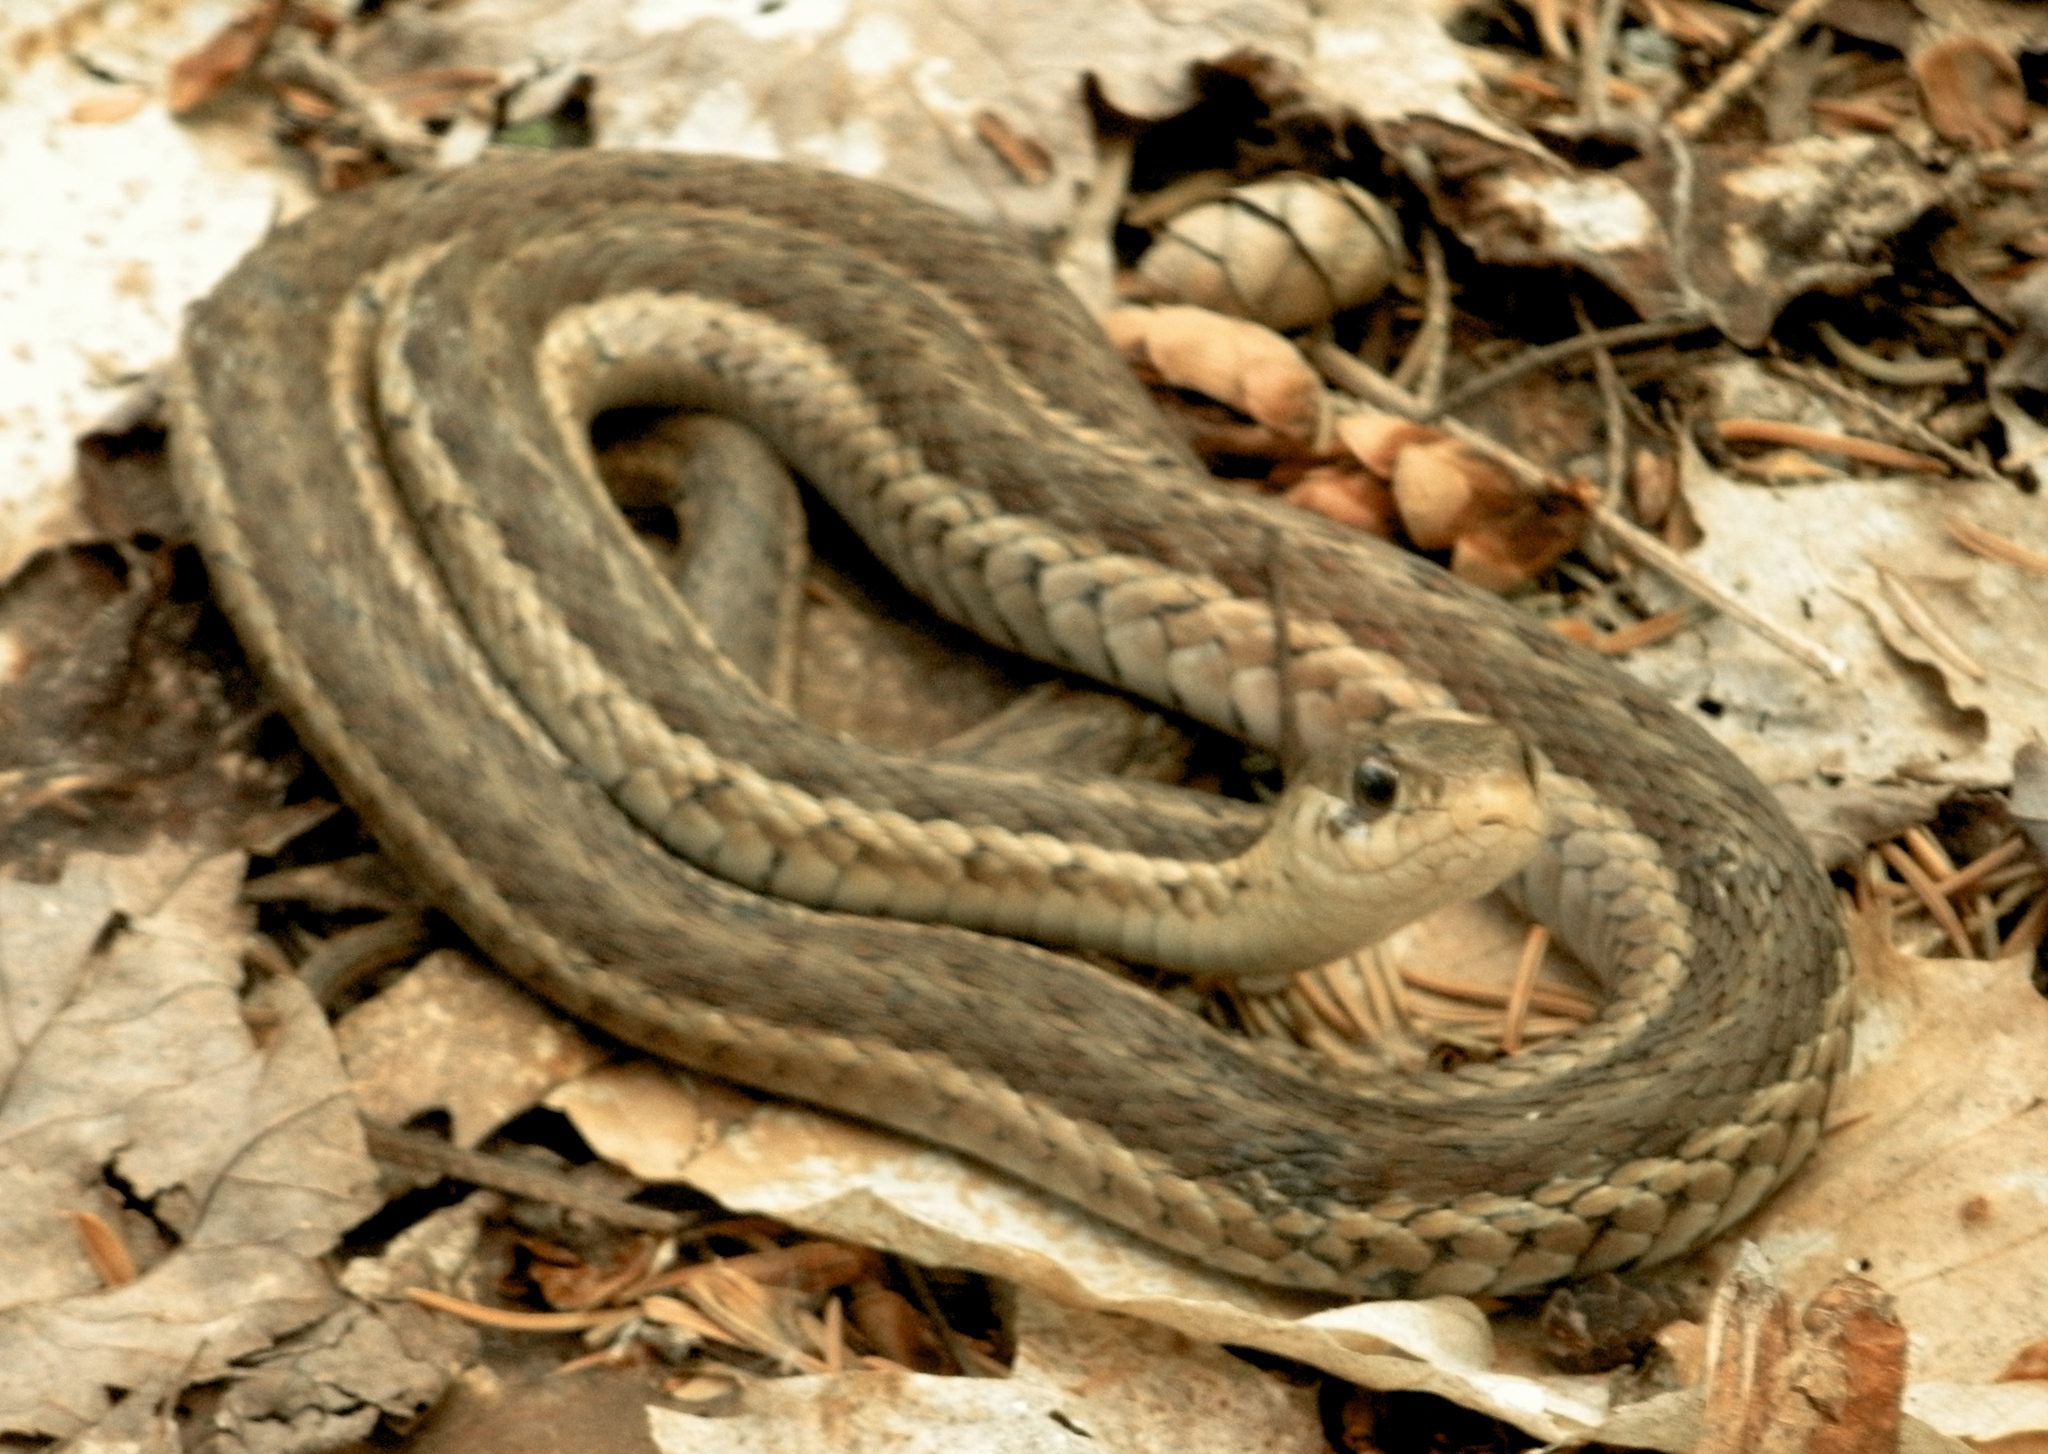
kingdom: Animalia
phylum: Chordata
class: Squamata
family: Colubridae
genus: Thamnophis
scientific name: Thamnophis sirtalis
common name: Common garter snake
